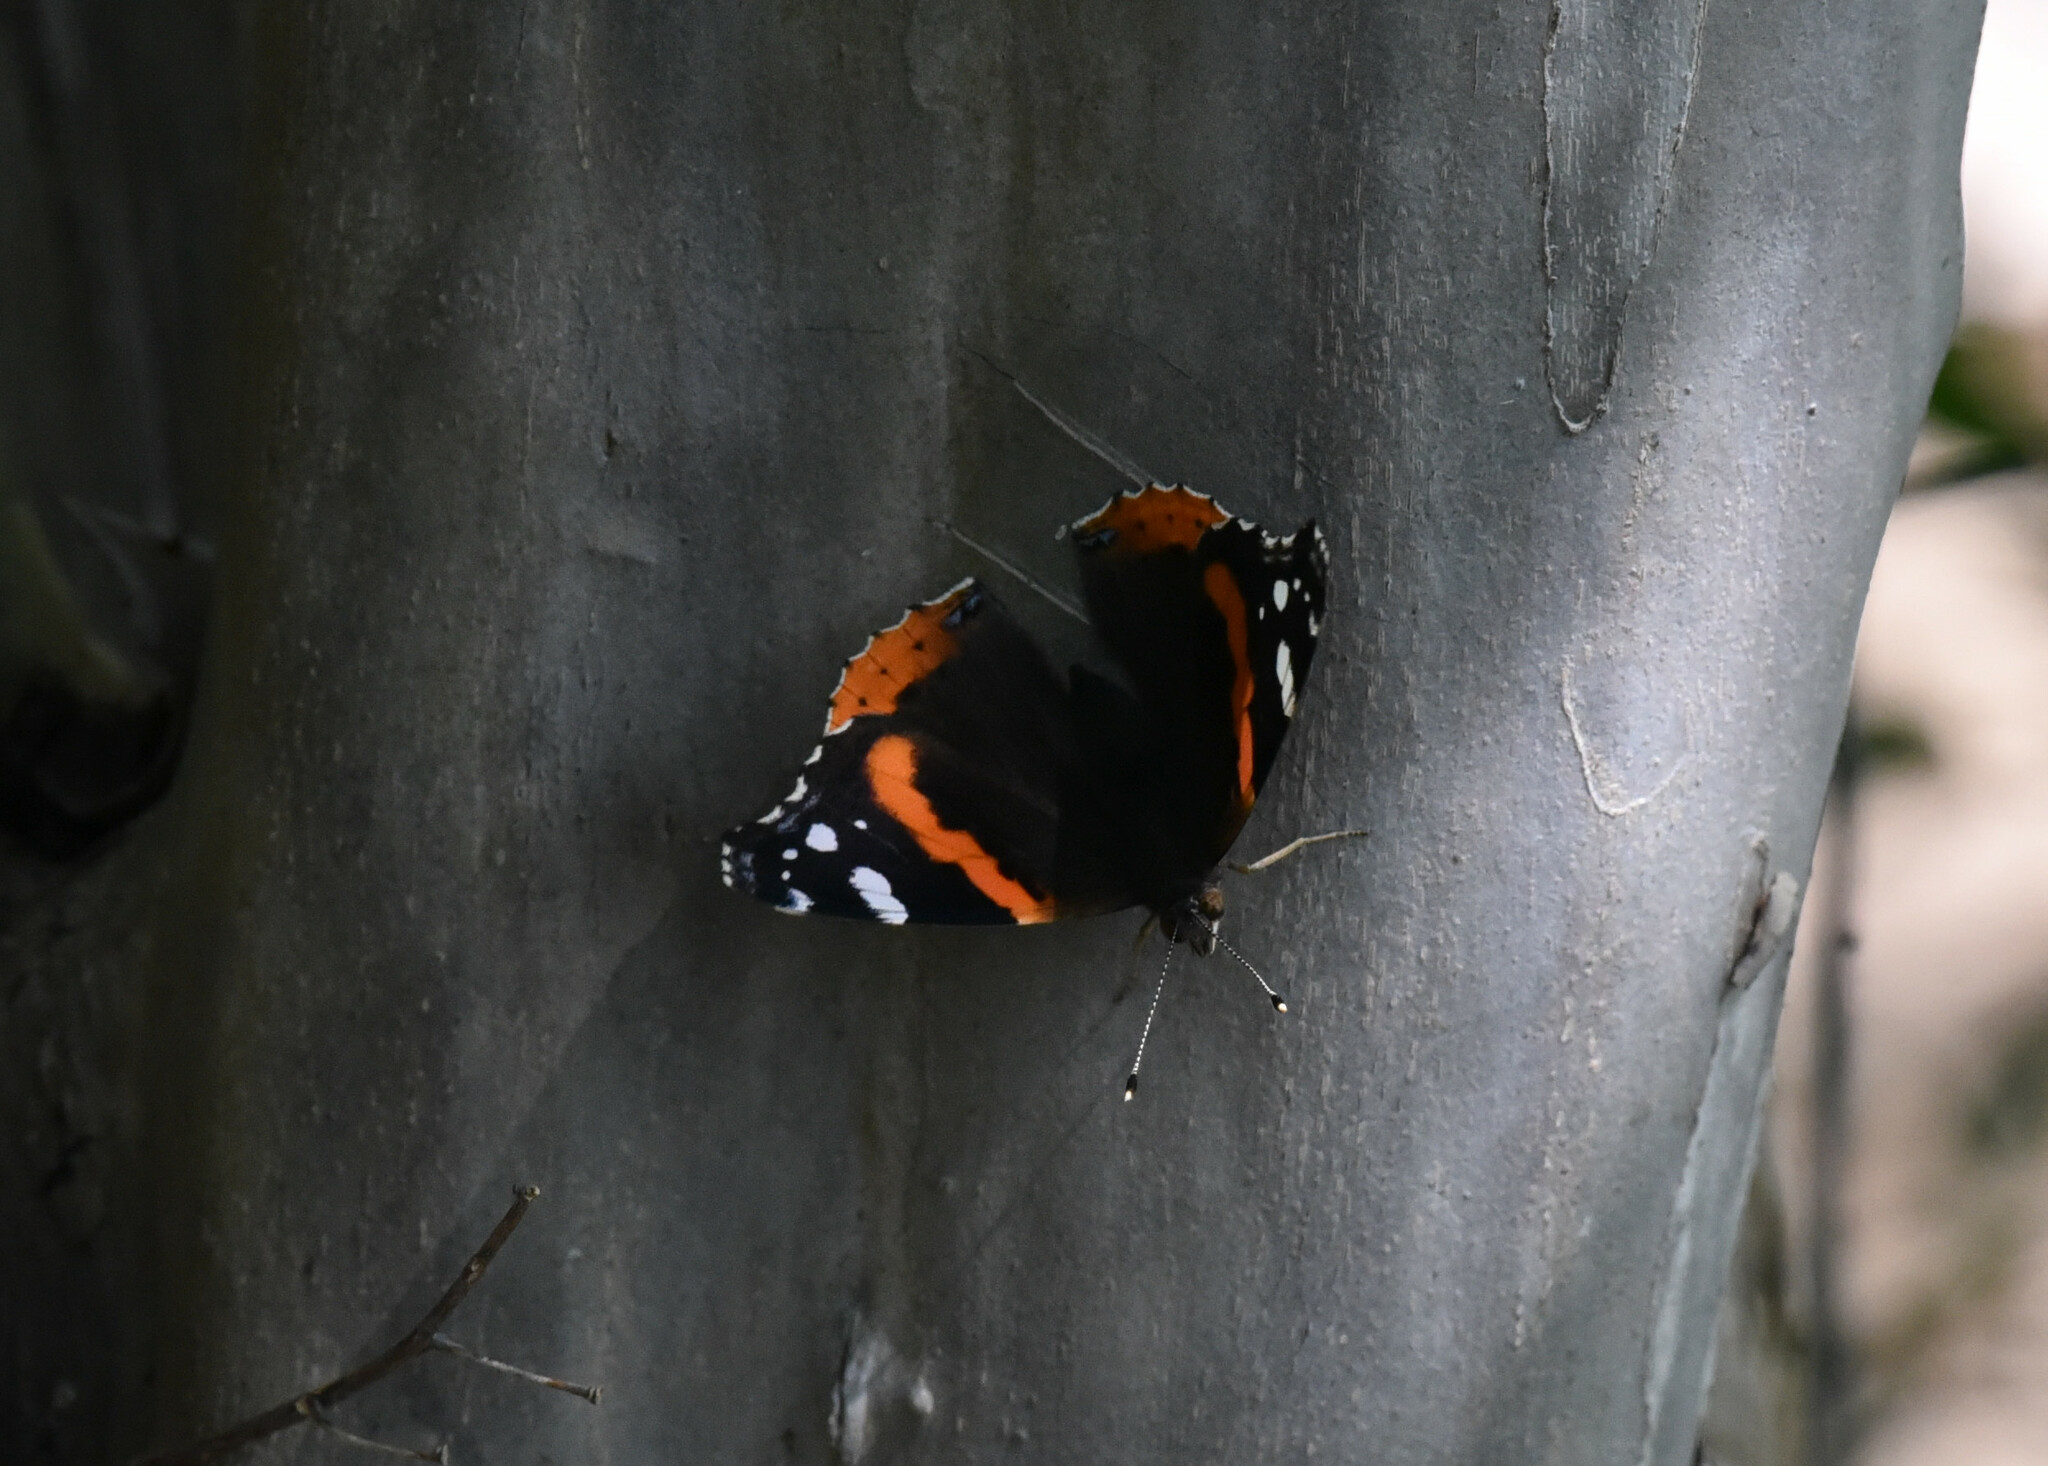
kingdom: Animalia
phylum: Arthropoda
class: Insecta
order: Lepidoptera
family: Nymphalidae
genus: Vanessa
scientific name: Vanessa atalanta
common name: Red admiral
